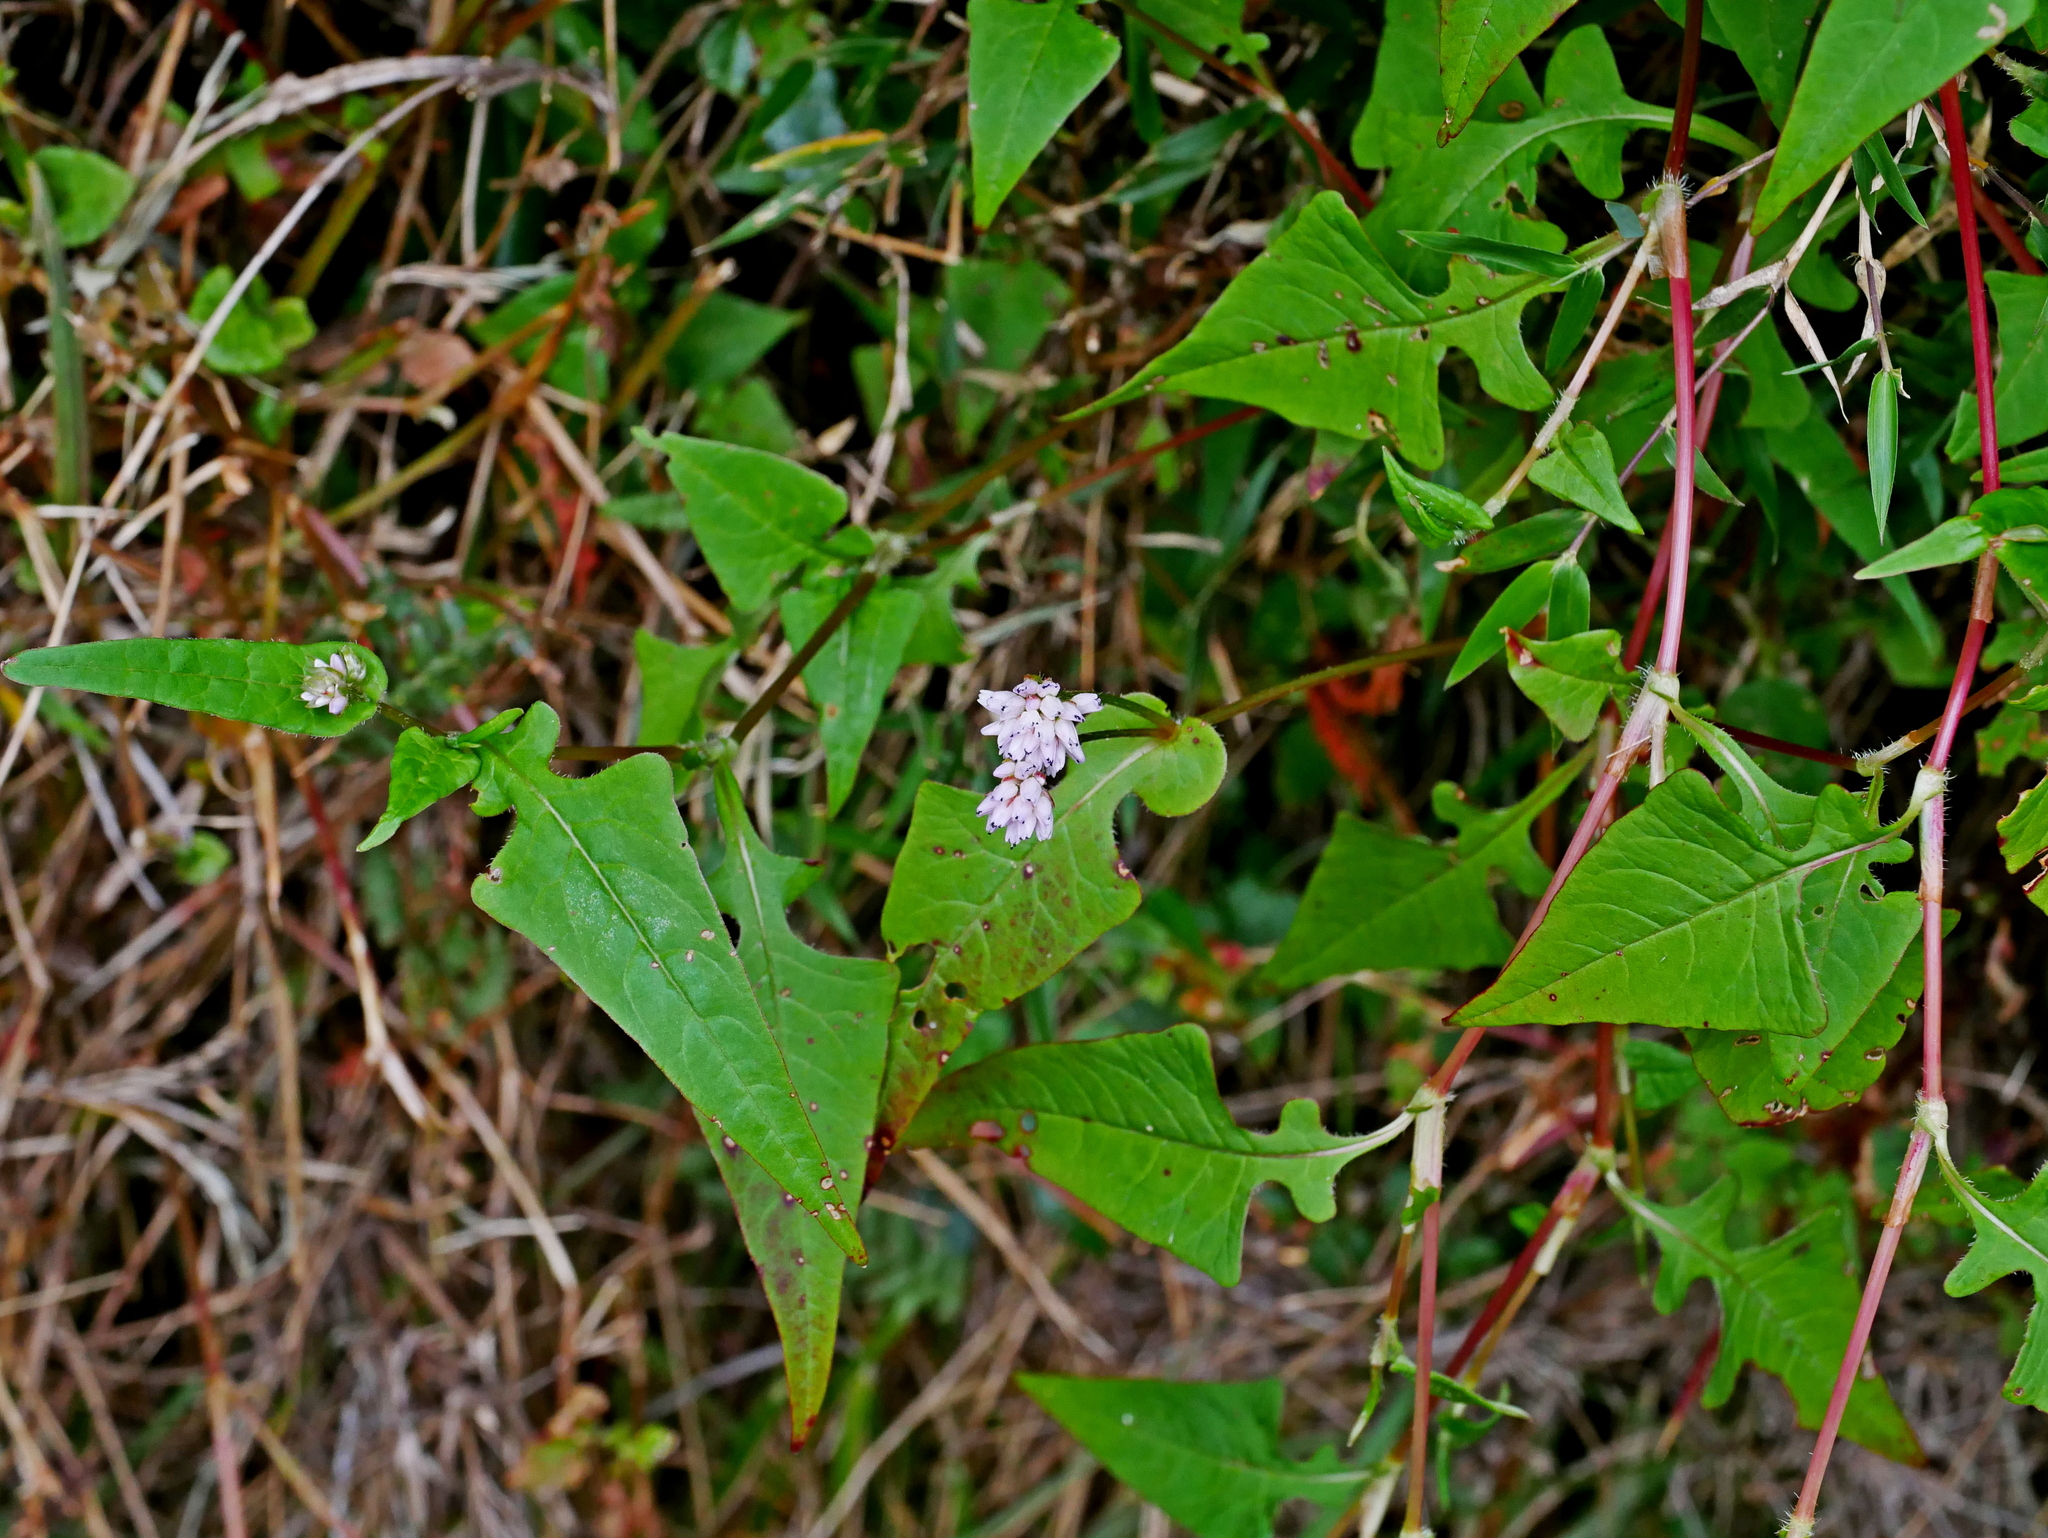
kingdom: Plantae
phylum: Tracheophyta
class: Magnoliopsida
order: Caryophyllales
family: Polygonaceae
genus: Persicaria
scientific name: Persicaria runcinata
